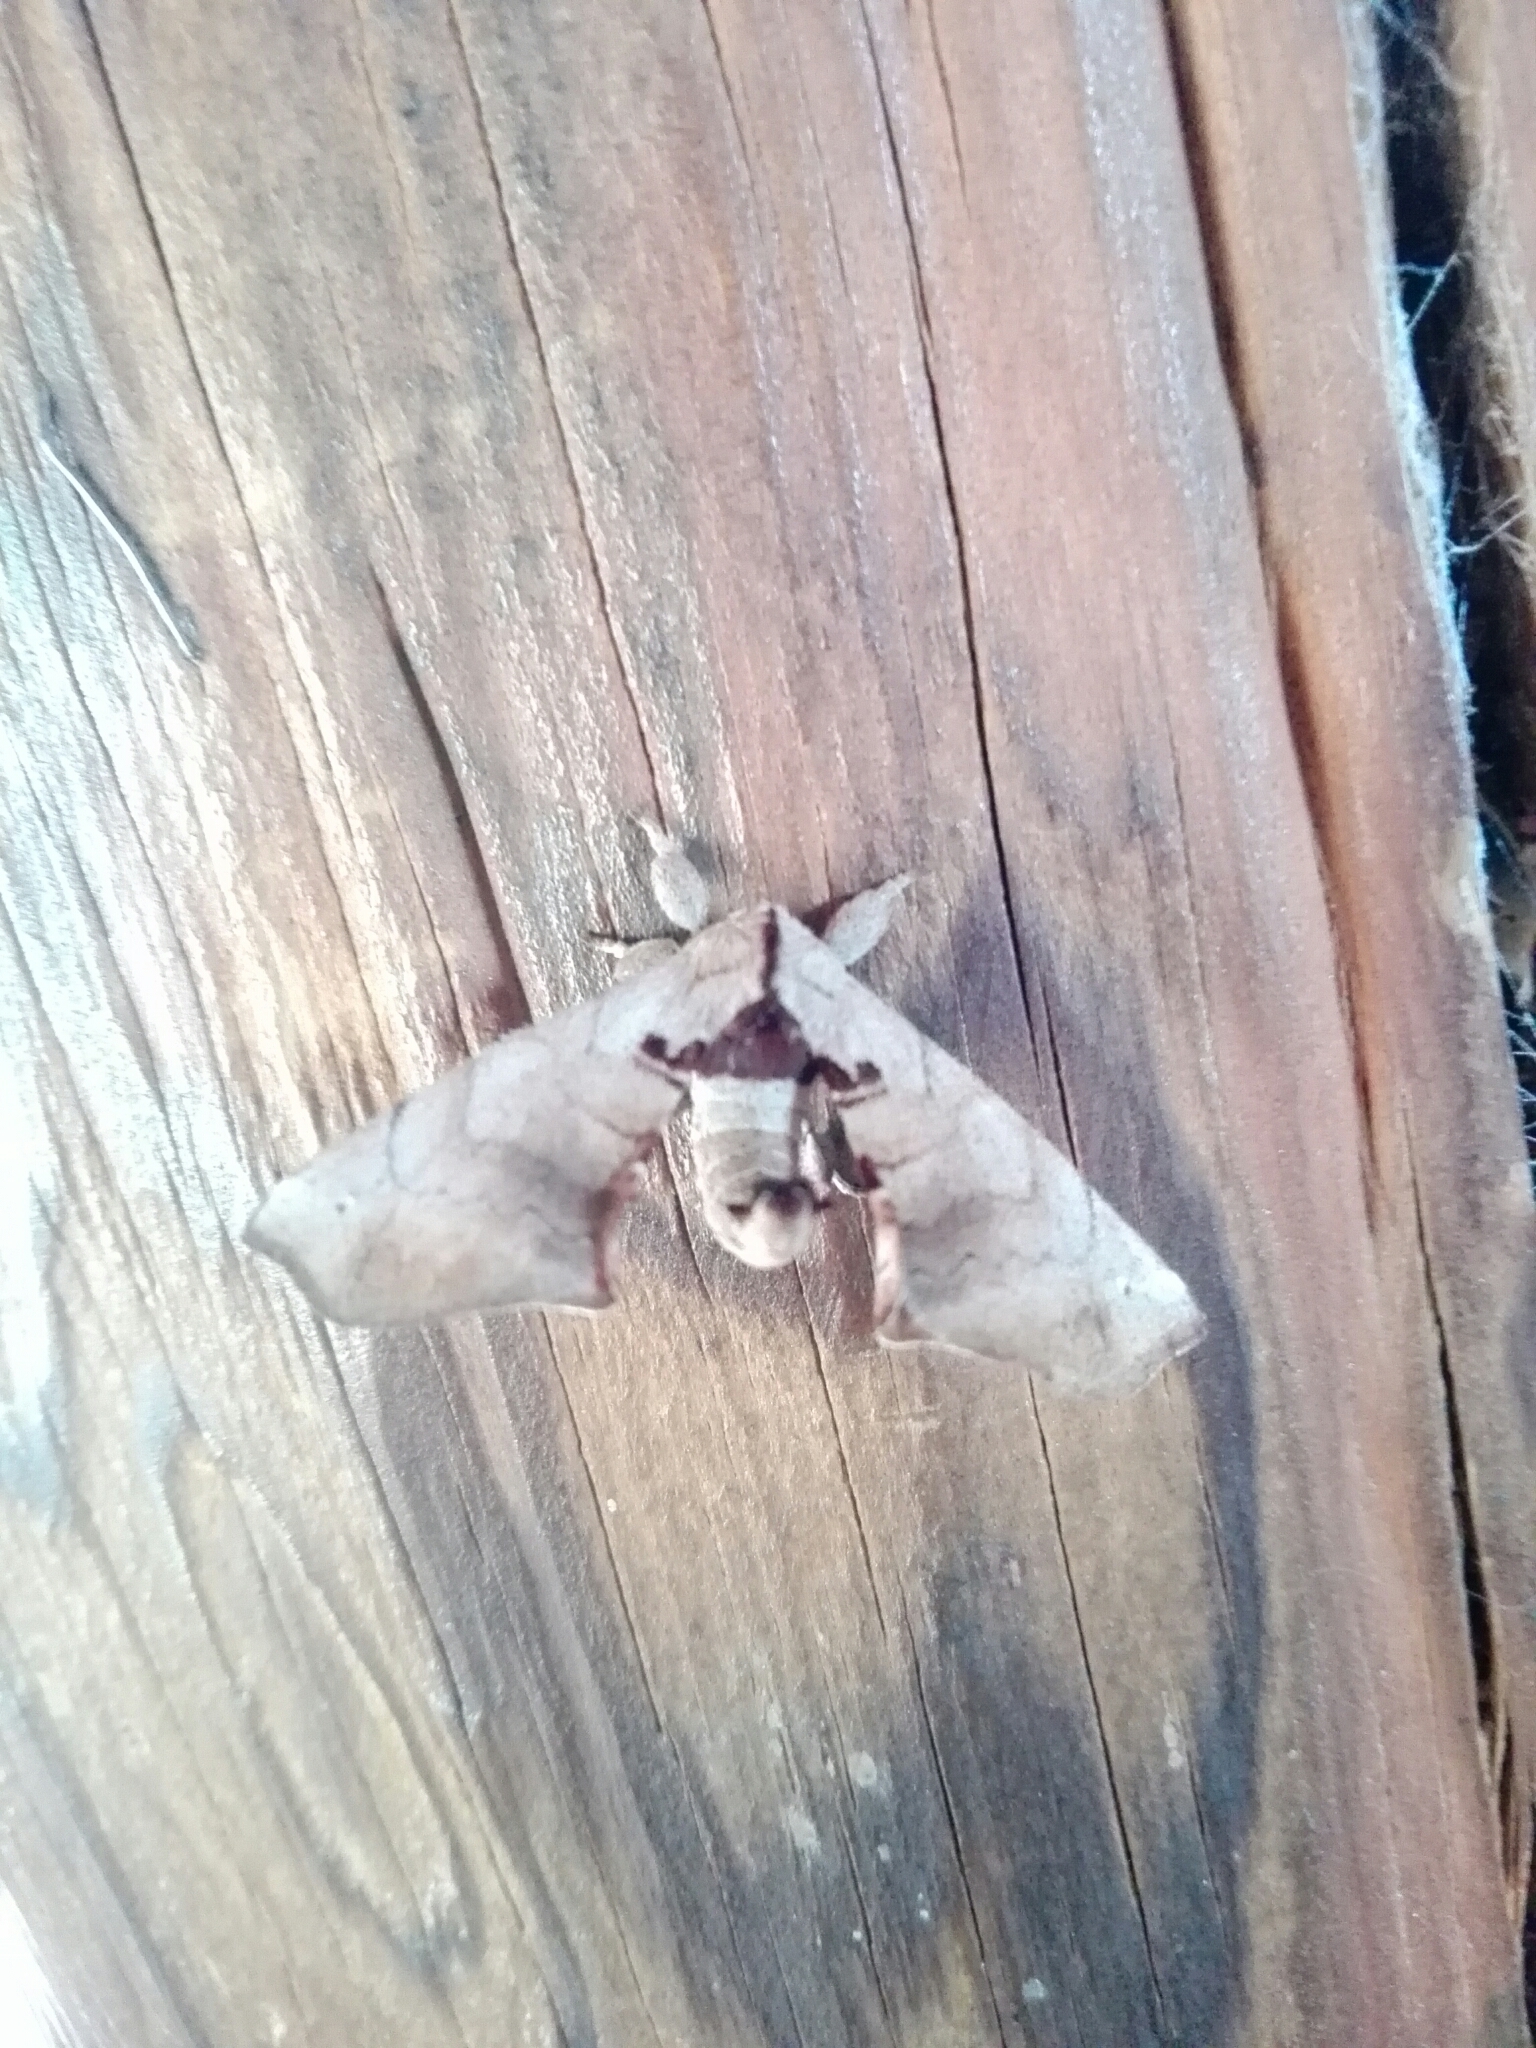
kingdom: Animalia
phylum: Arthropoda
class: Insecta
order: Lepidoptera
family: Apatelodidae
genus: Hygrochroa
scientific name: Hygrochroa Apatelodes torrefacta
